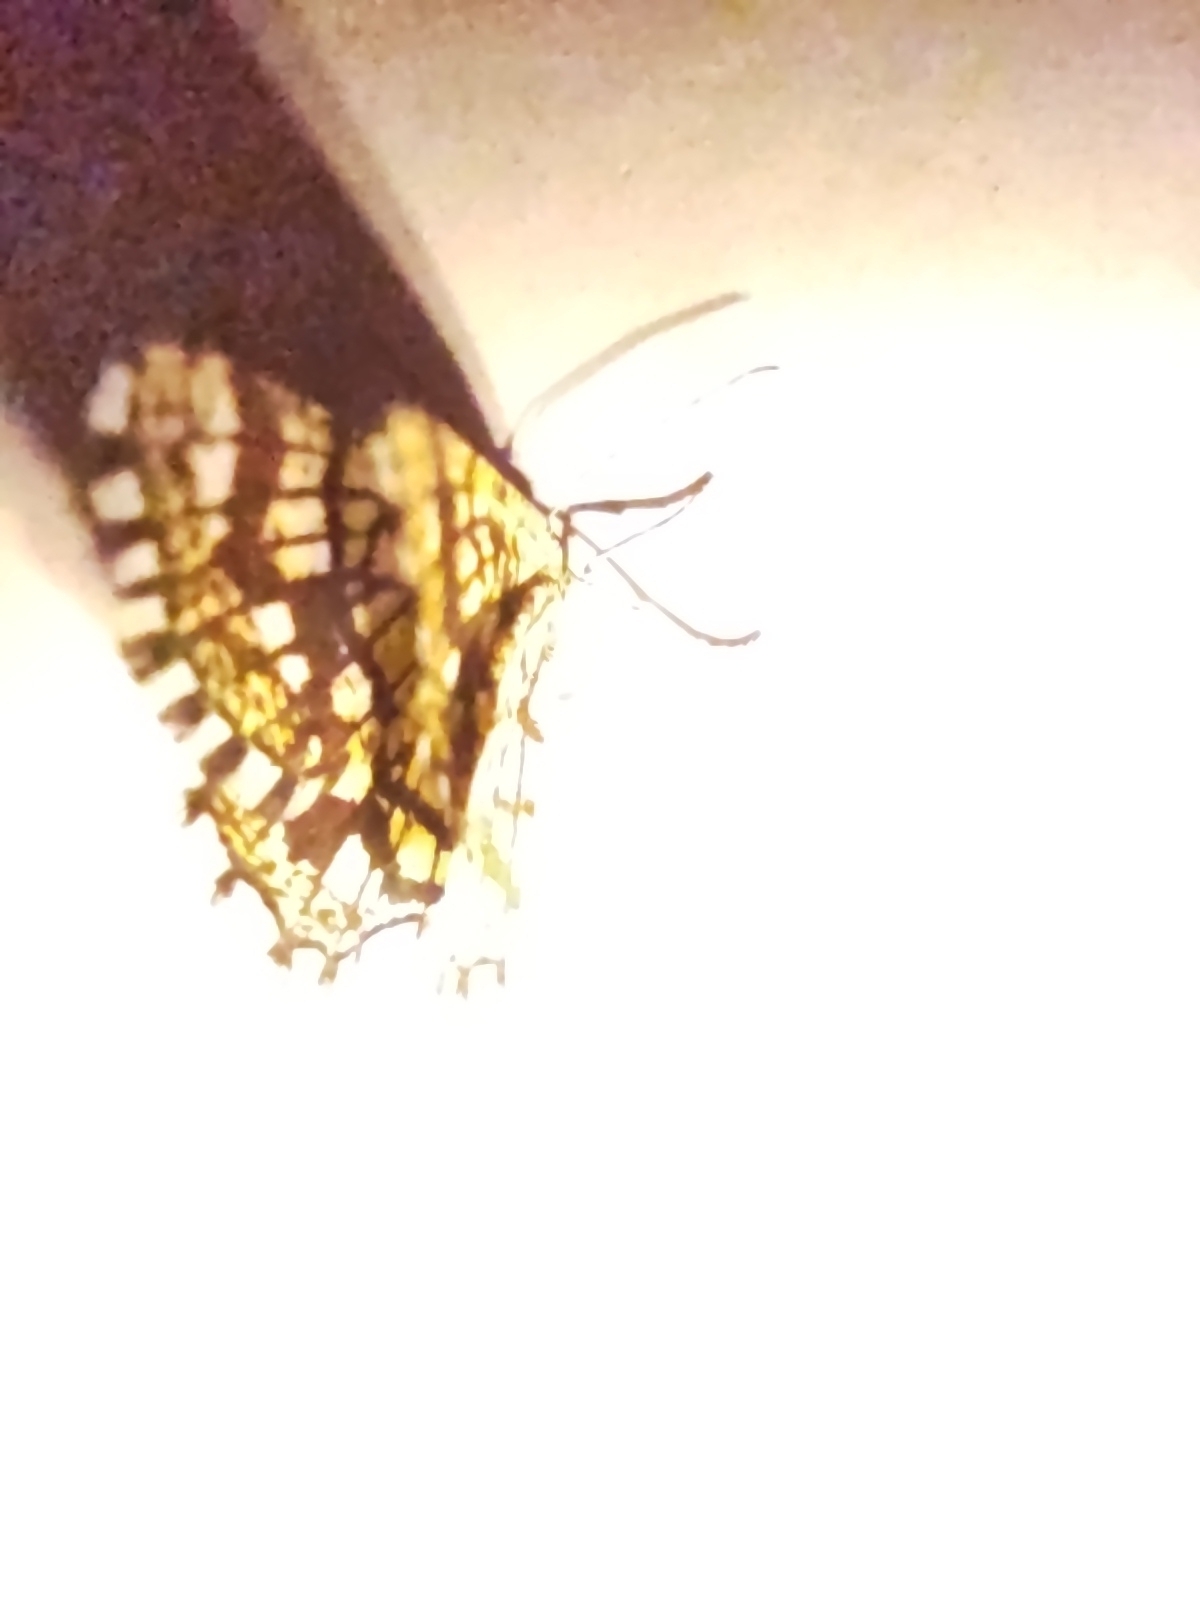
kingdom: Animalia
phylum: Arthropoda
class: Insecta
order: Lepidoptera
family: Geometridae
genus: Chiasmia
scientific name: Chiasmia clathrata
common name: Latticed heath
